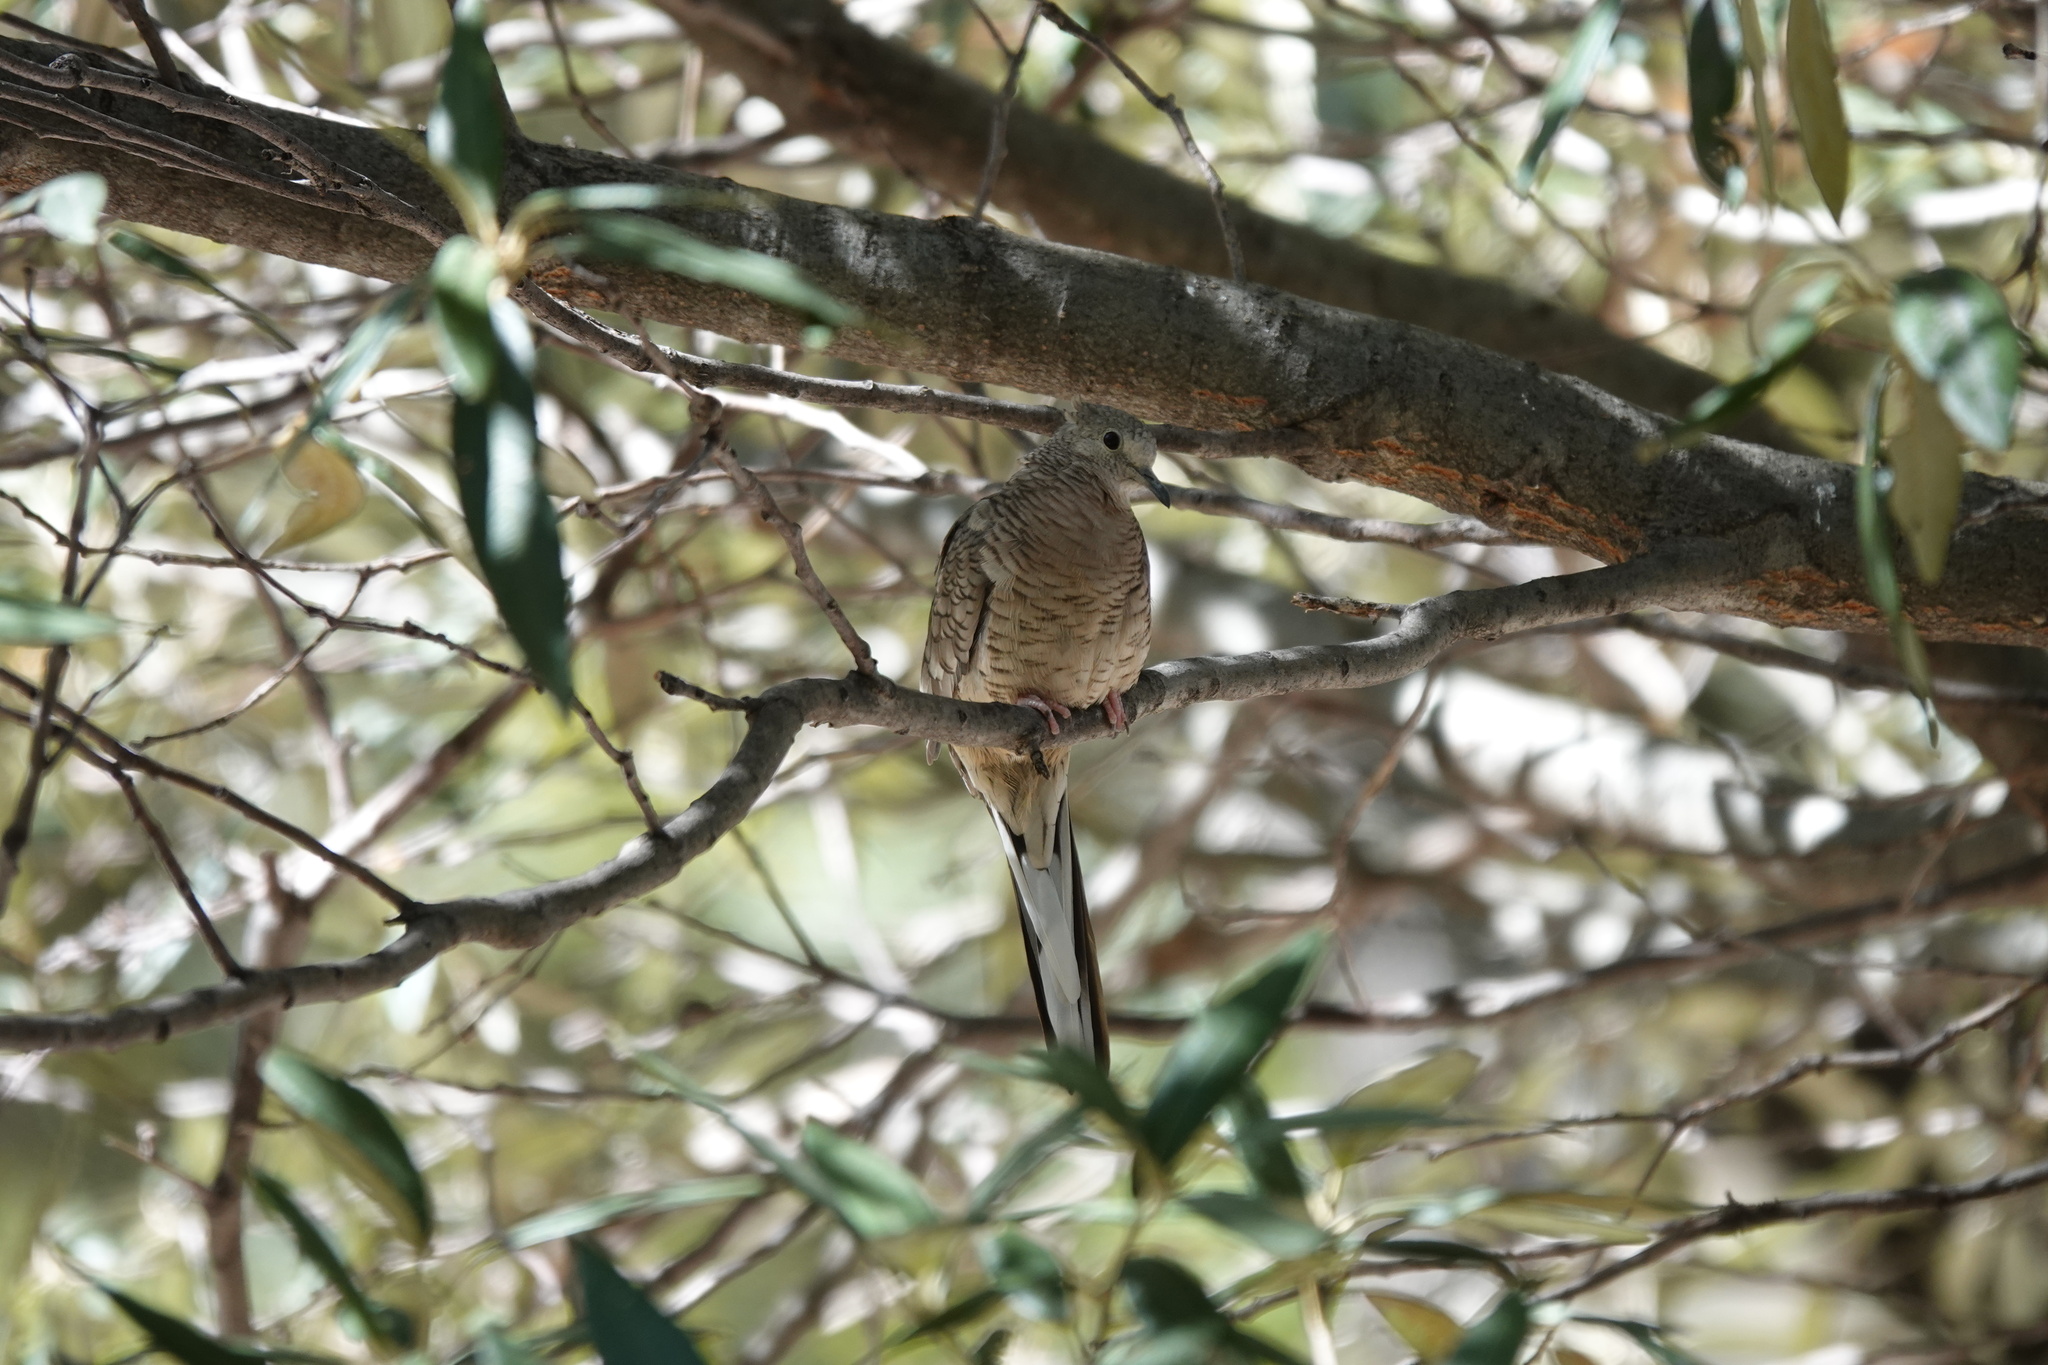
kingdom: Animalia
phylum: Chordata
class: Aves
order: Columbiformes
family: Columbidae
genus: Columbina
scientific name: Columbina inca
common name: Inca dove
